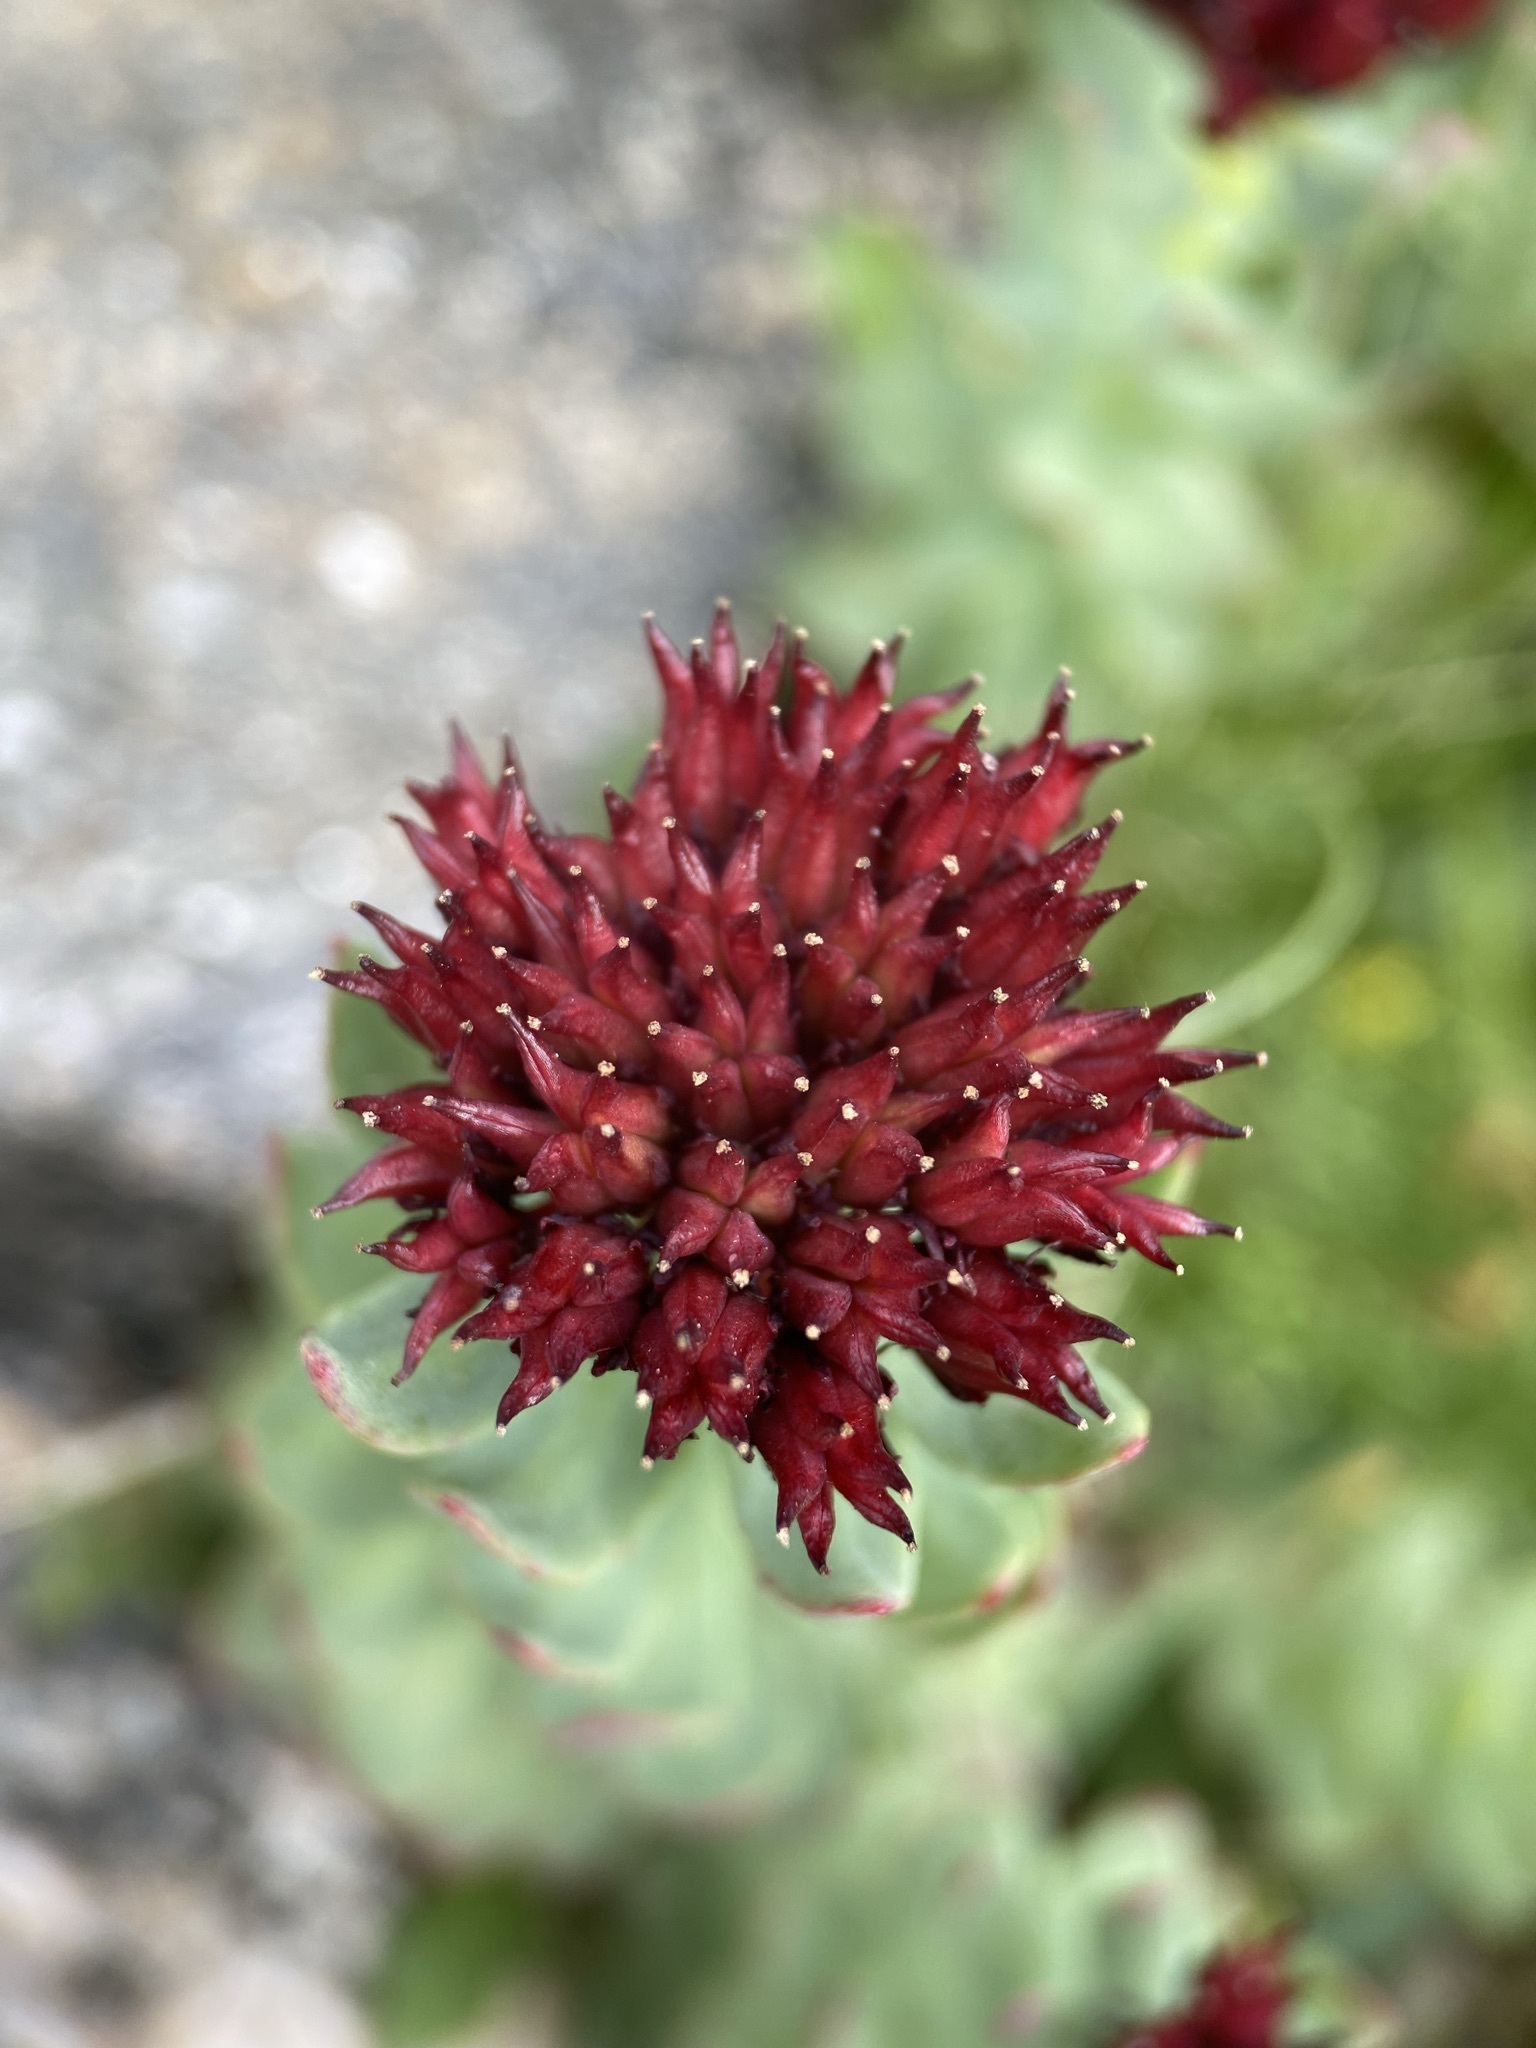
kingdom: Plantae
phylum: Tracheophyta
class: Magnoliopsida
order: Saxifragales
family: Crassulaceae
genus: Rhodiola
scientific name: Rhodiola integrifolia
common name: Western roseroot
